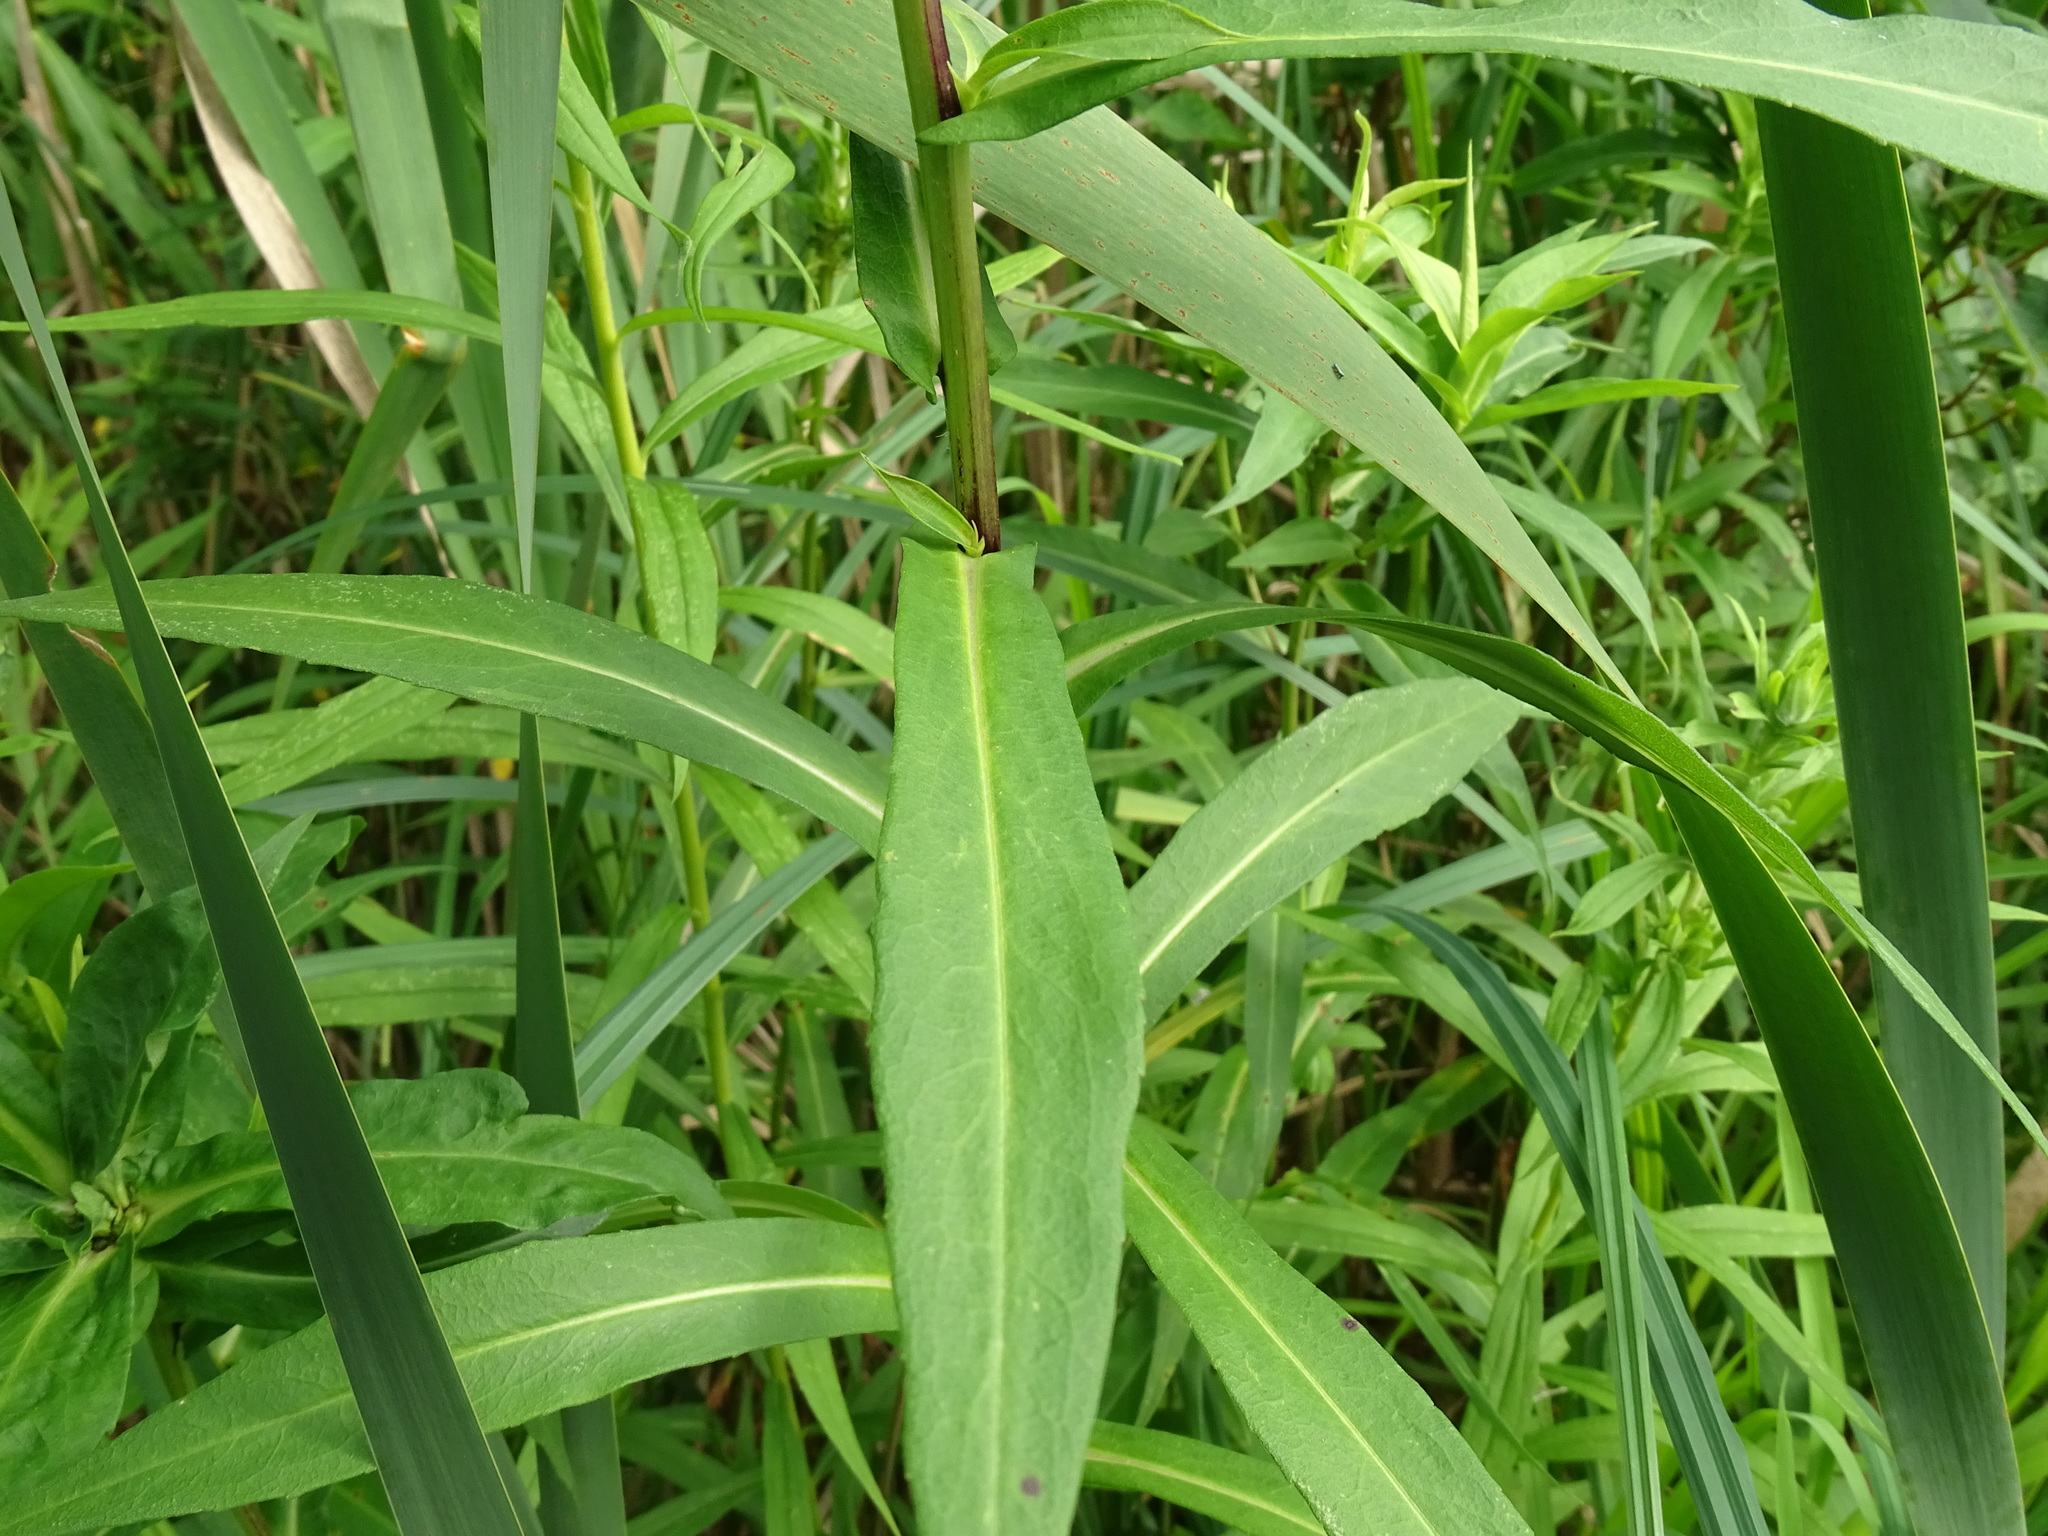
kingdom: Plantae
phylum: Tracheophyta
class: Magnoliopsida
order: Asterales
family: Asteraceae
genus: Symphyotrichum
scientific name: Symphyotrichum firmum
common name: Shining aster
